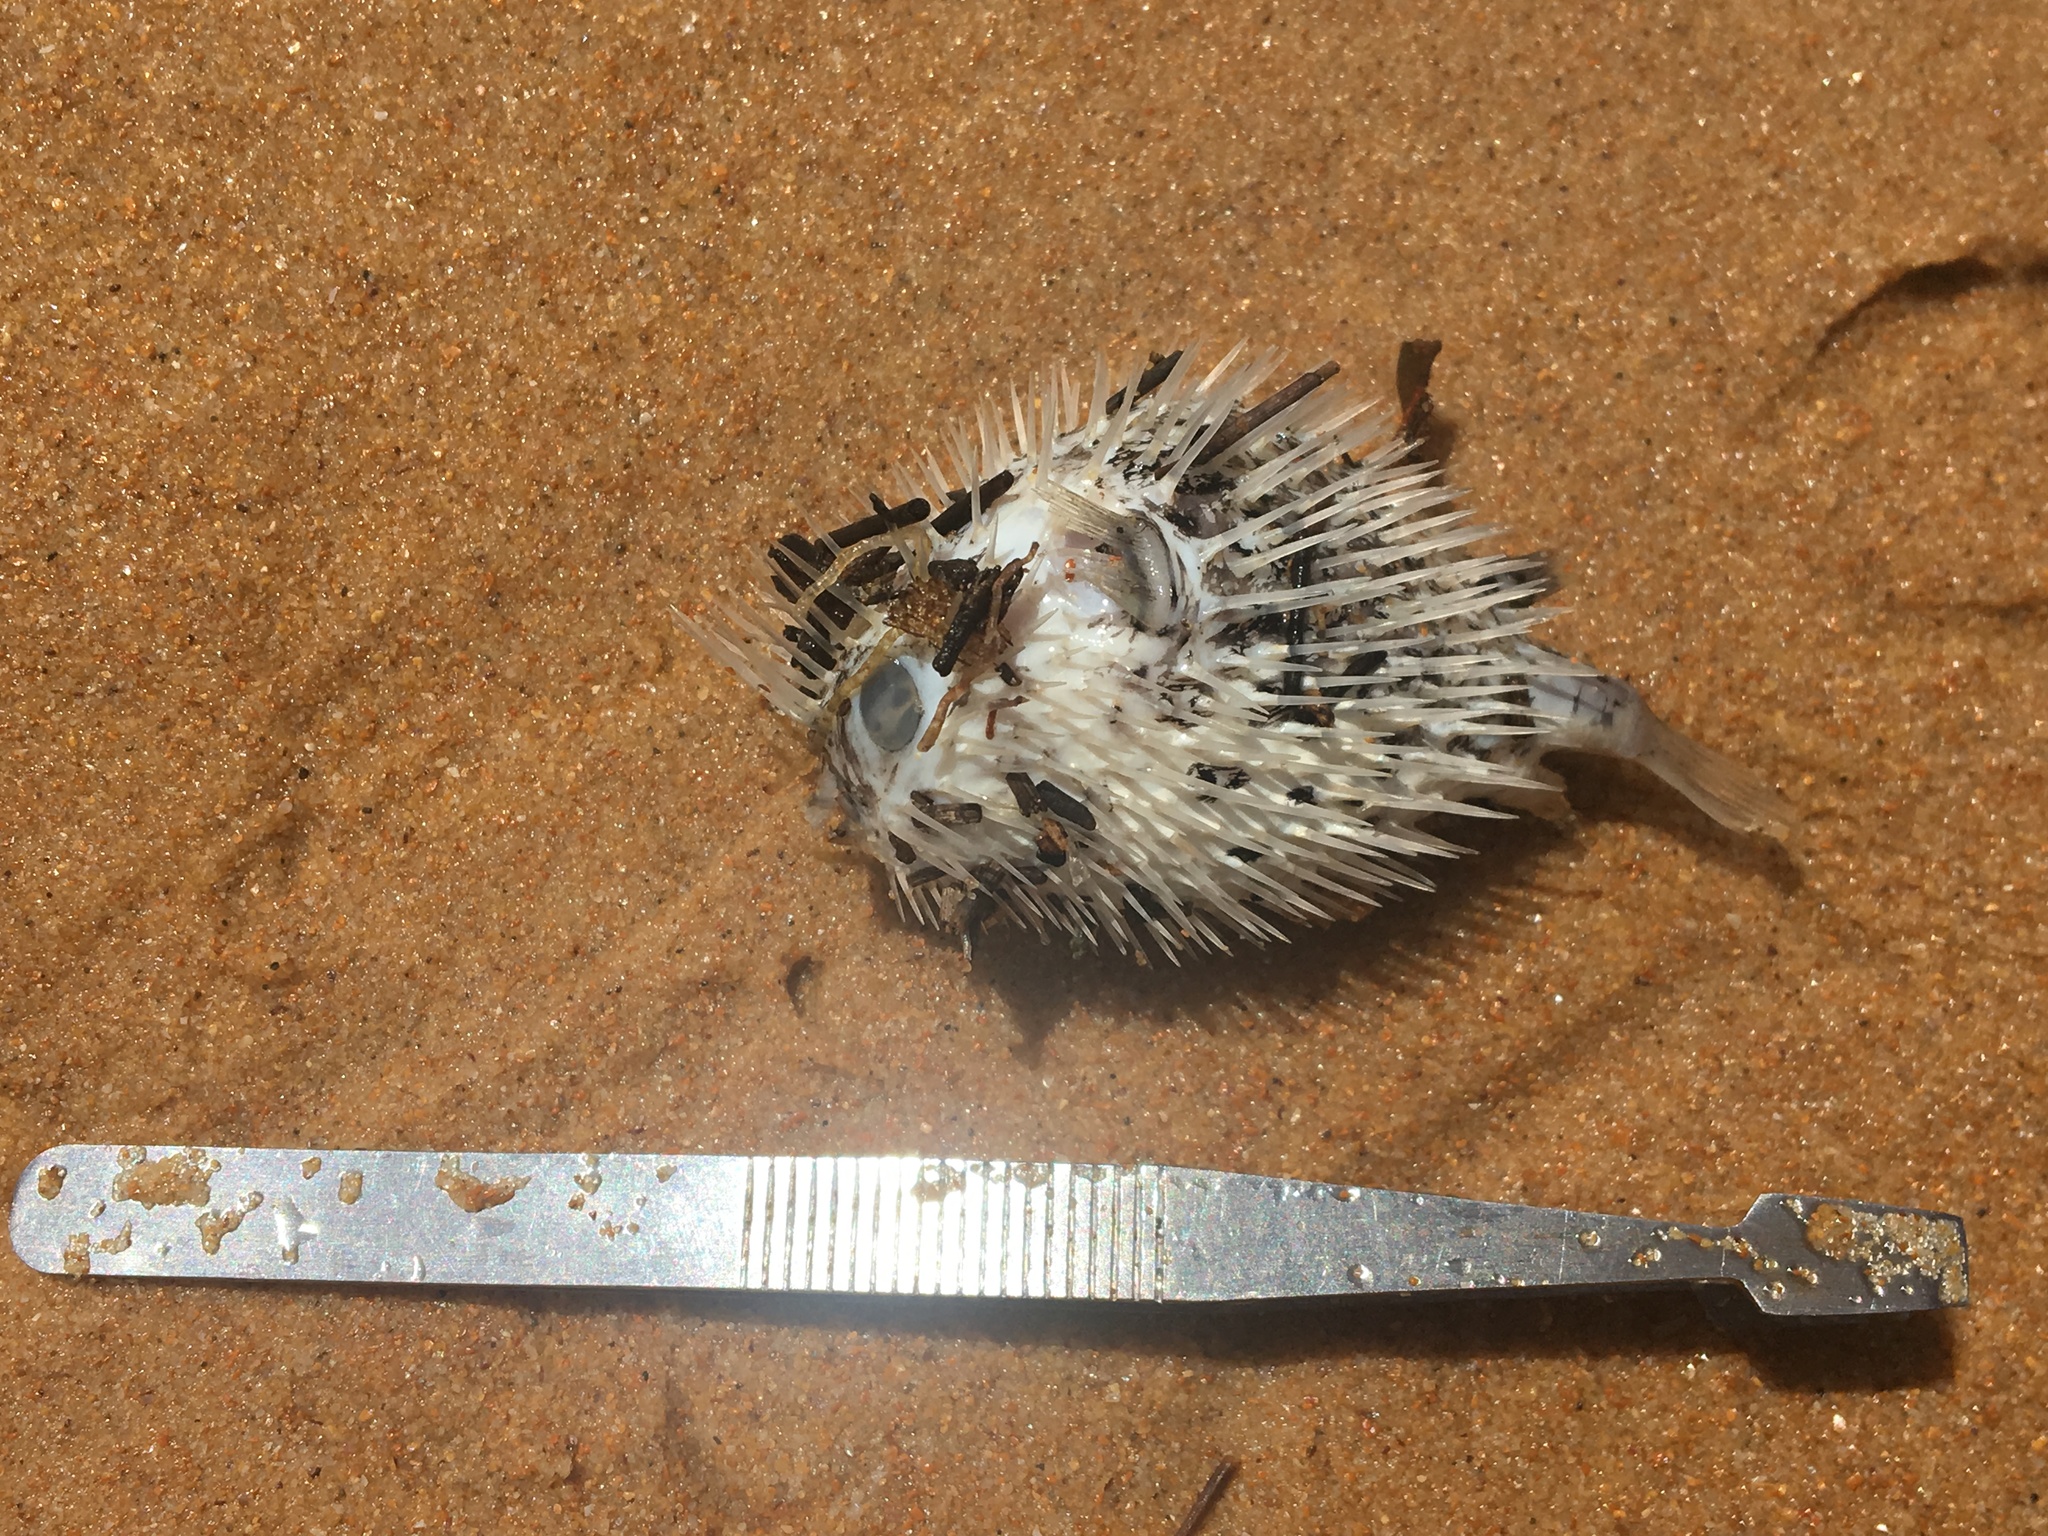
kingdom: Animalia
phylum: Chordata
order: Tetraodontiformes
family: Diodontidae
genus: Diodon
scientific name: Diodon holocanthus
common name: Balloonfish
